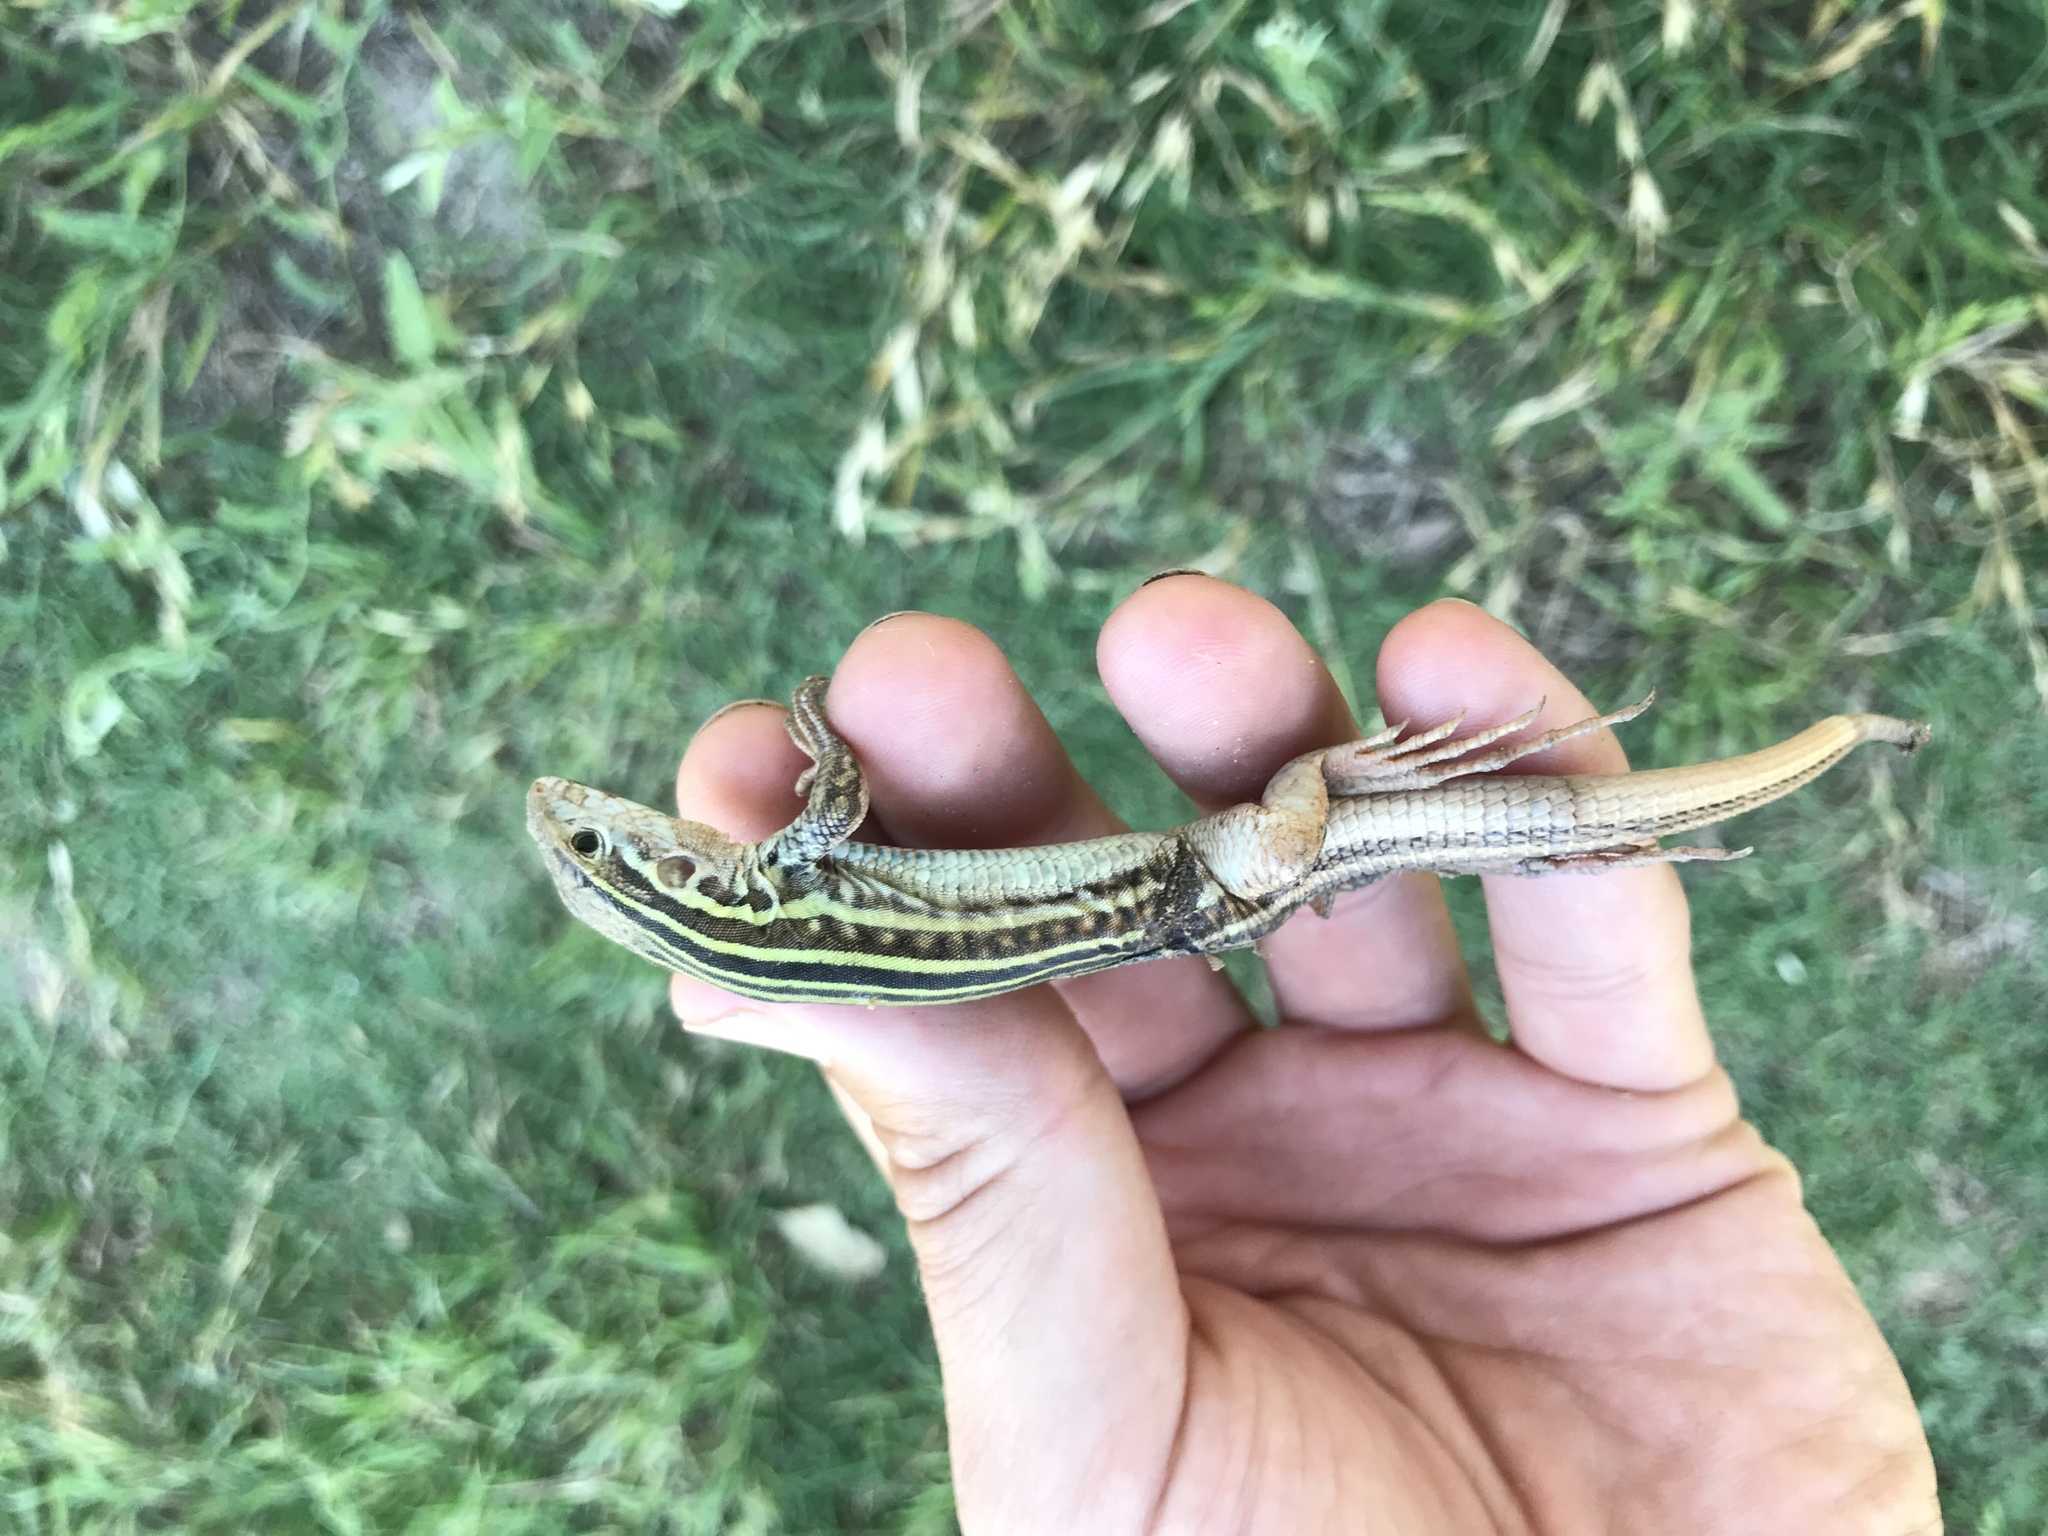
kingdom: Animalia
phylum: Chordata
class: Squamata
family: Teiidae
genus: Aspidoscelis
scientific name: Aspidoscelis gularis
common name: Eastern spotted whiptail
